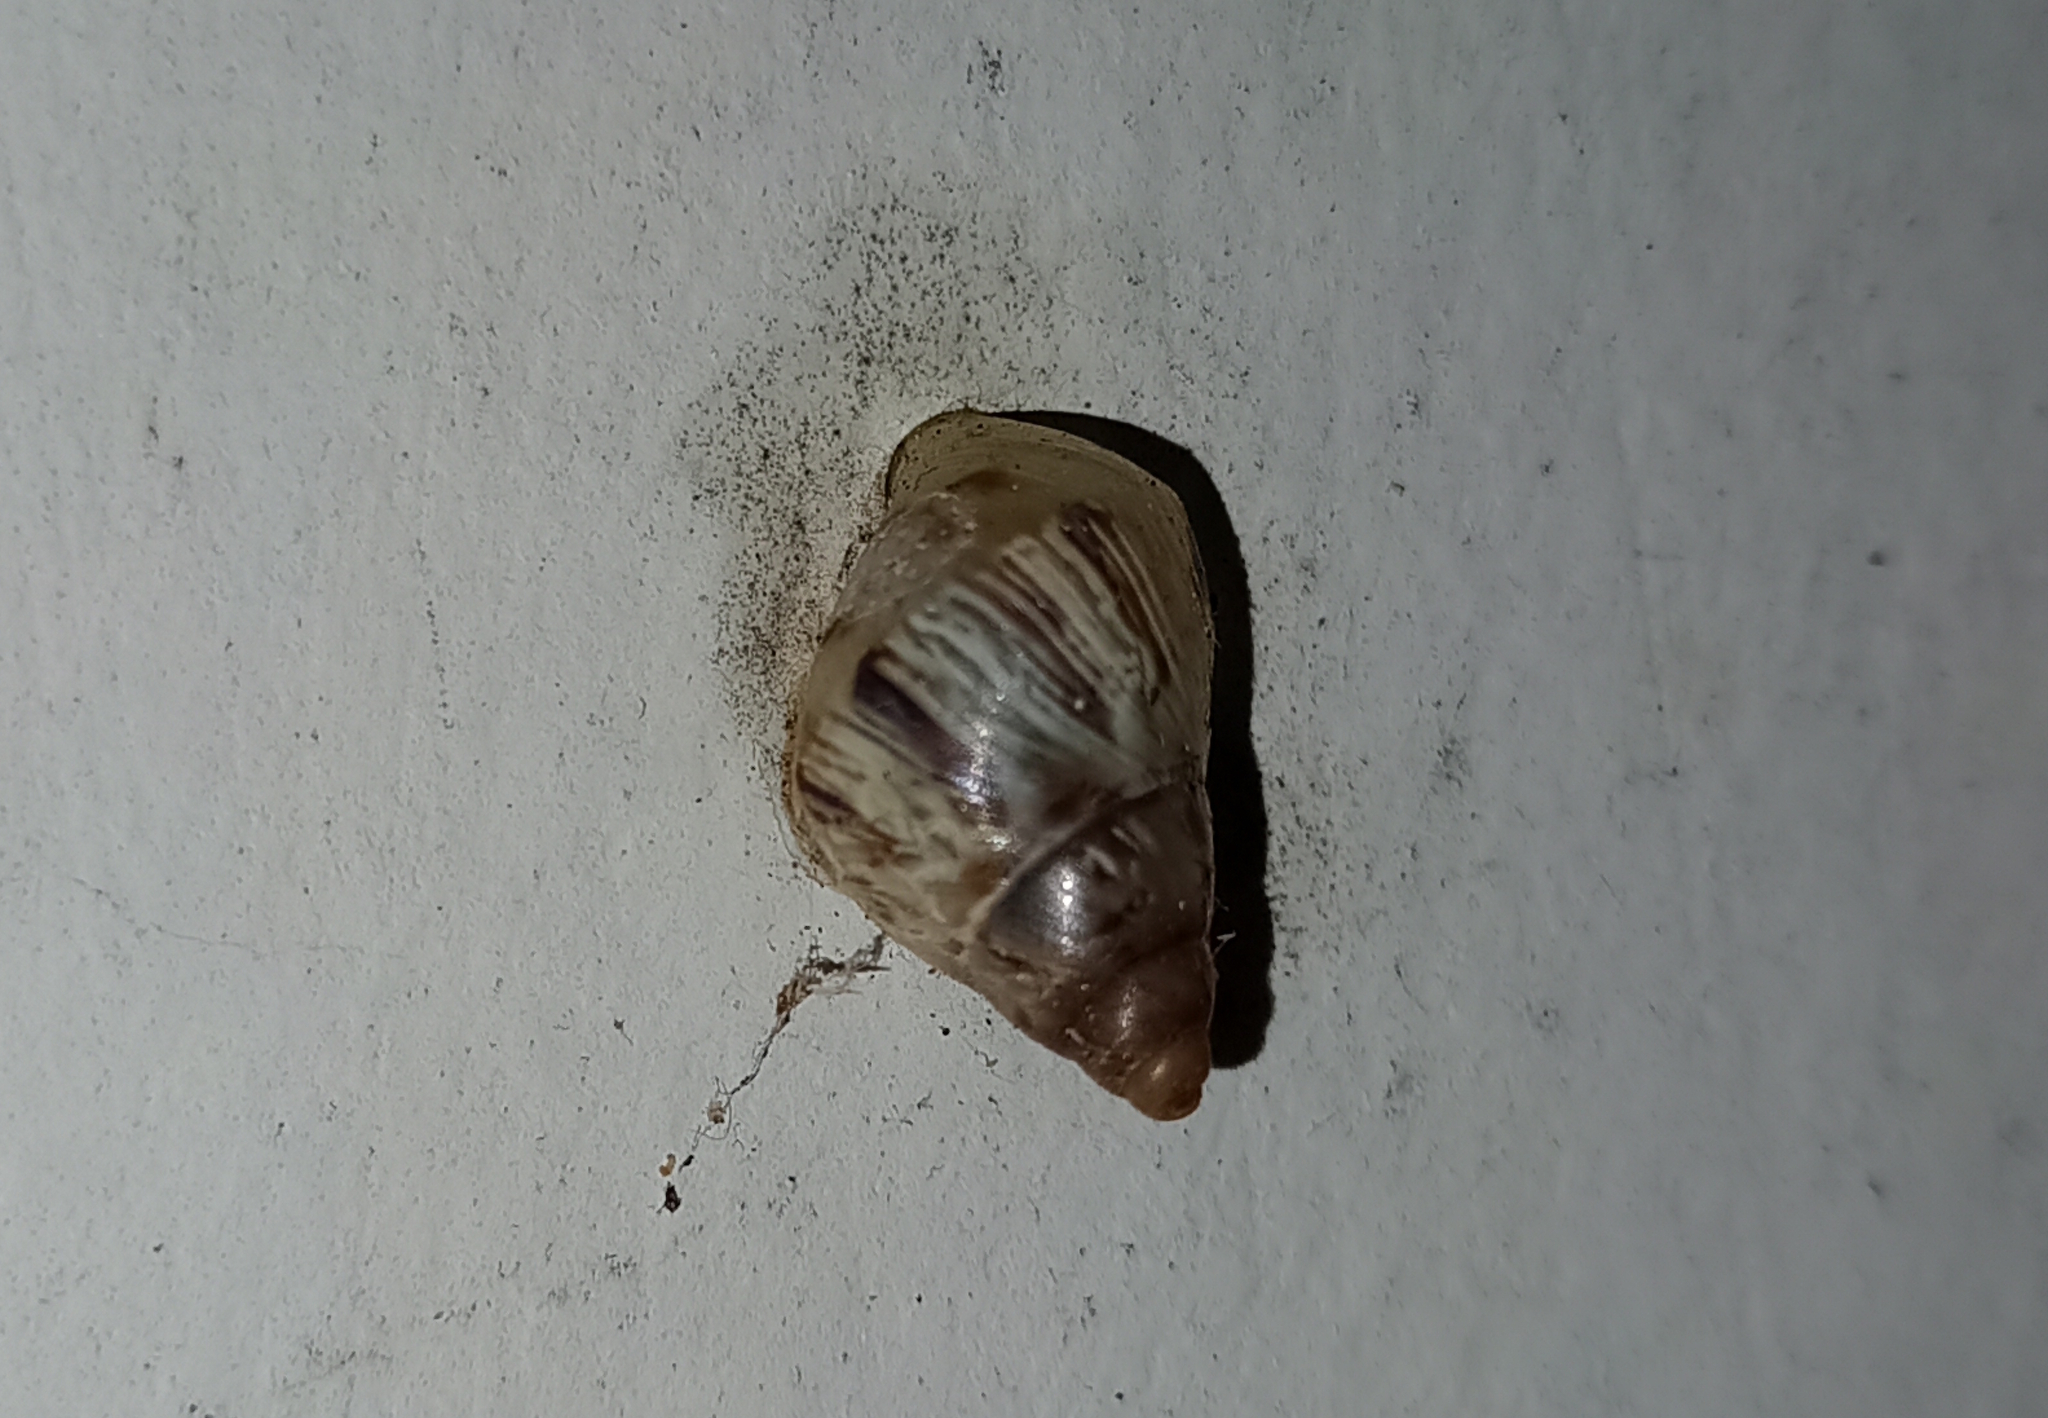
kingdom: Animalia
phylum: Mollusca
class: Gastropoda
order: Stylommatophora
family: Bulimulidae
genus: Drymaeus
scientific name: Drymaeus papyraceus
